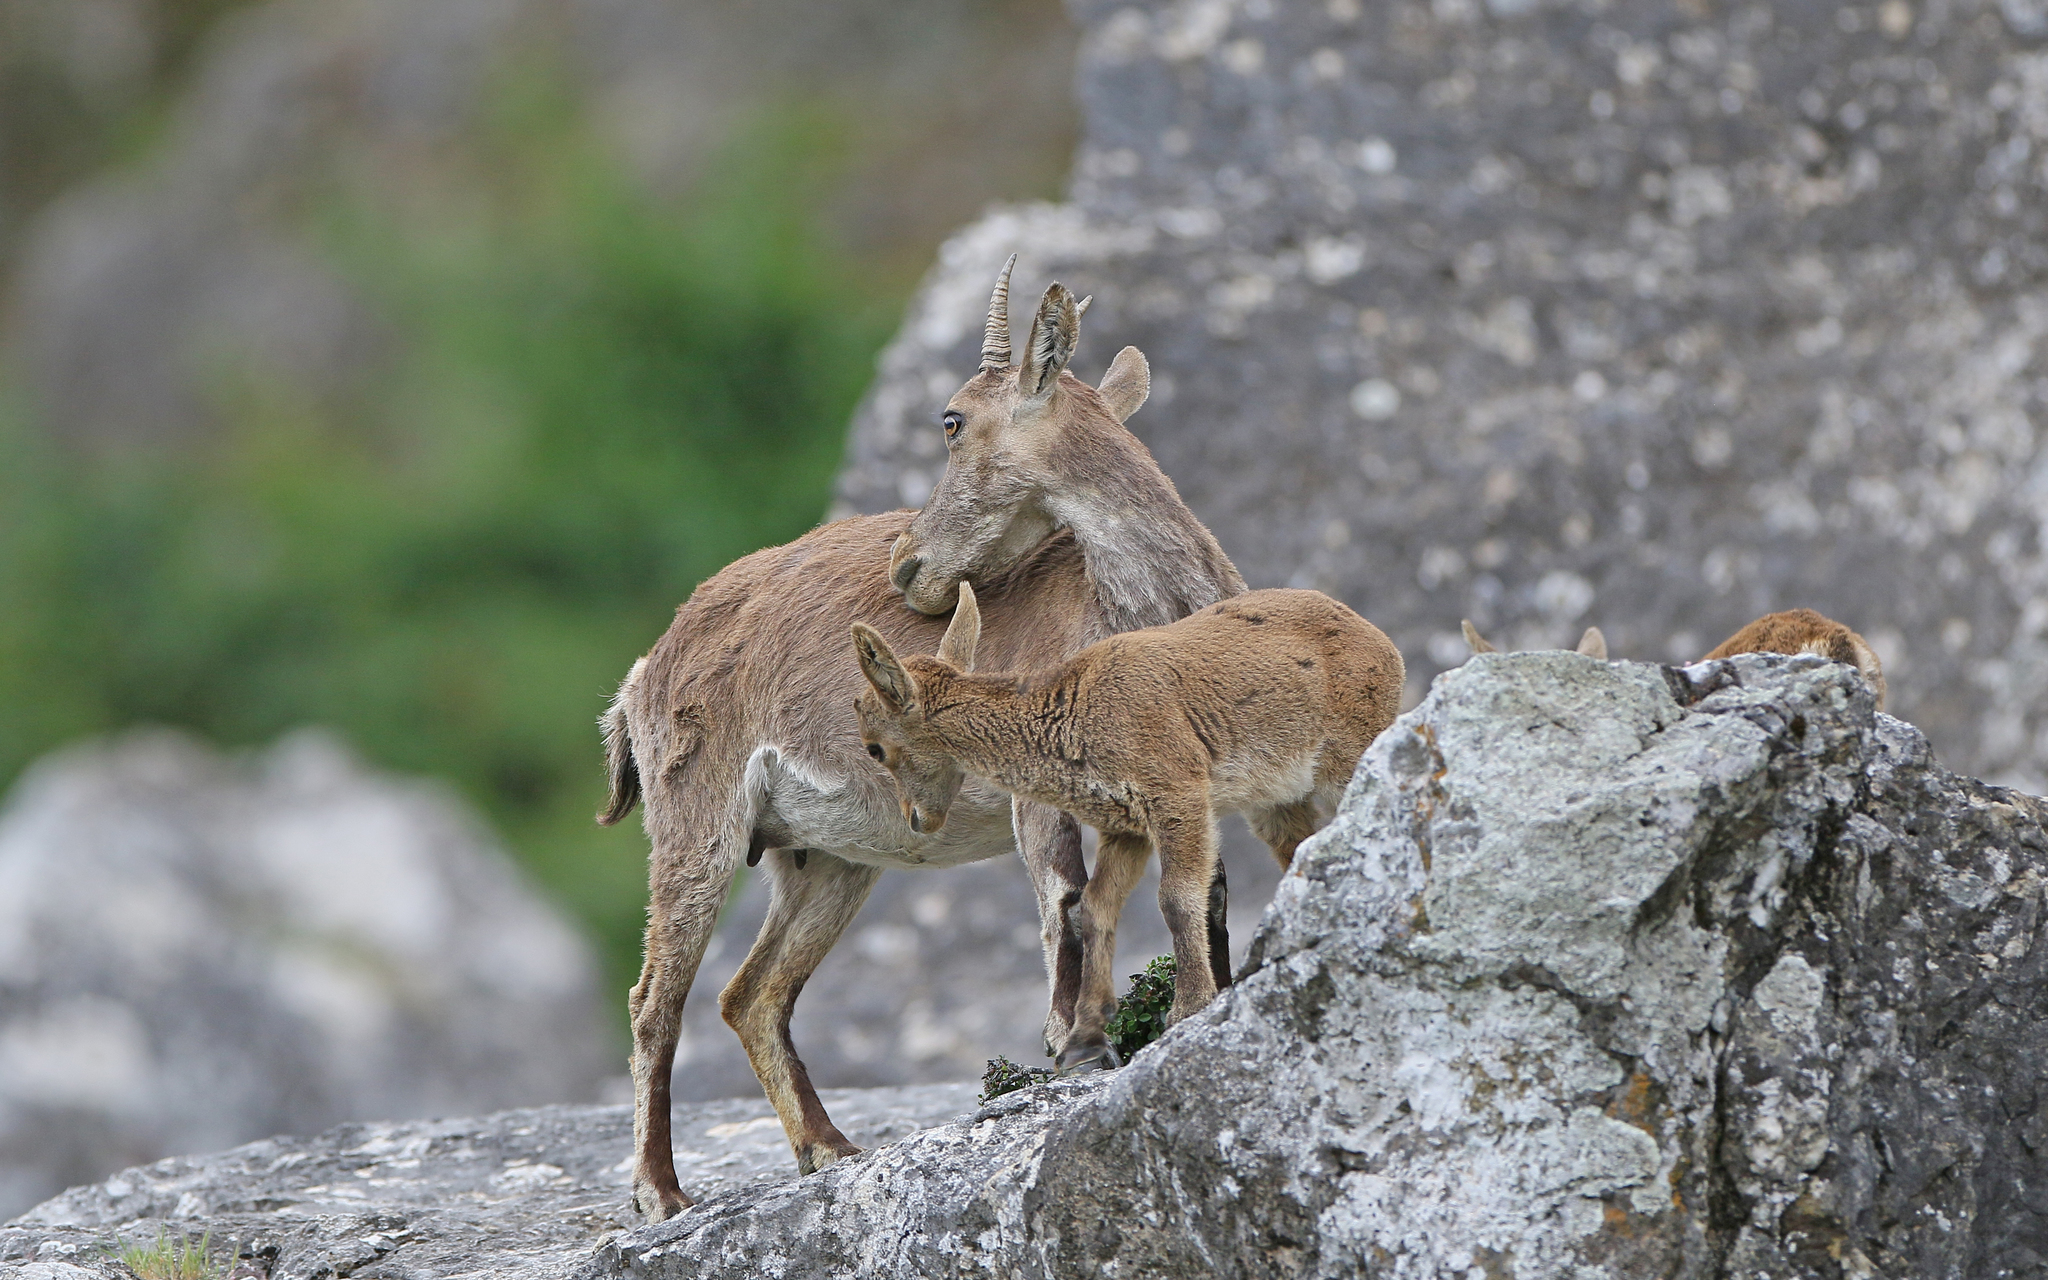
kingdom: Animalia
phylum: Chordata
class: Mammalia
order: Artiodactyla
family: Bovidae
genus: Capra
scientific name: Capra pyrenaica
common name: Spanish ibex
